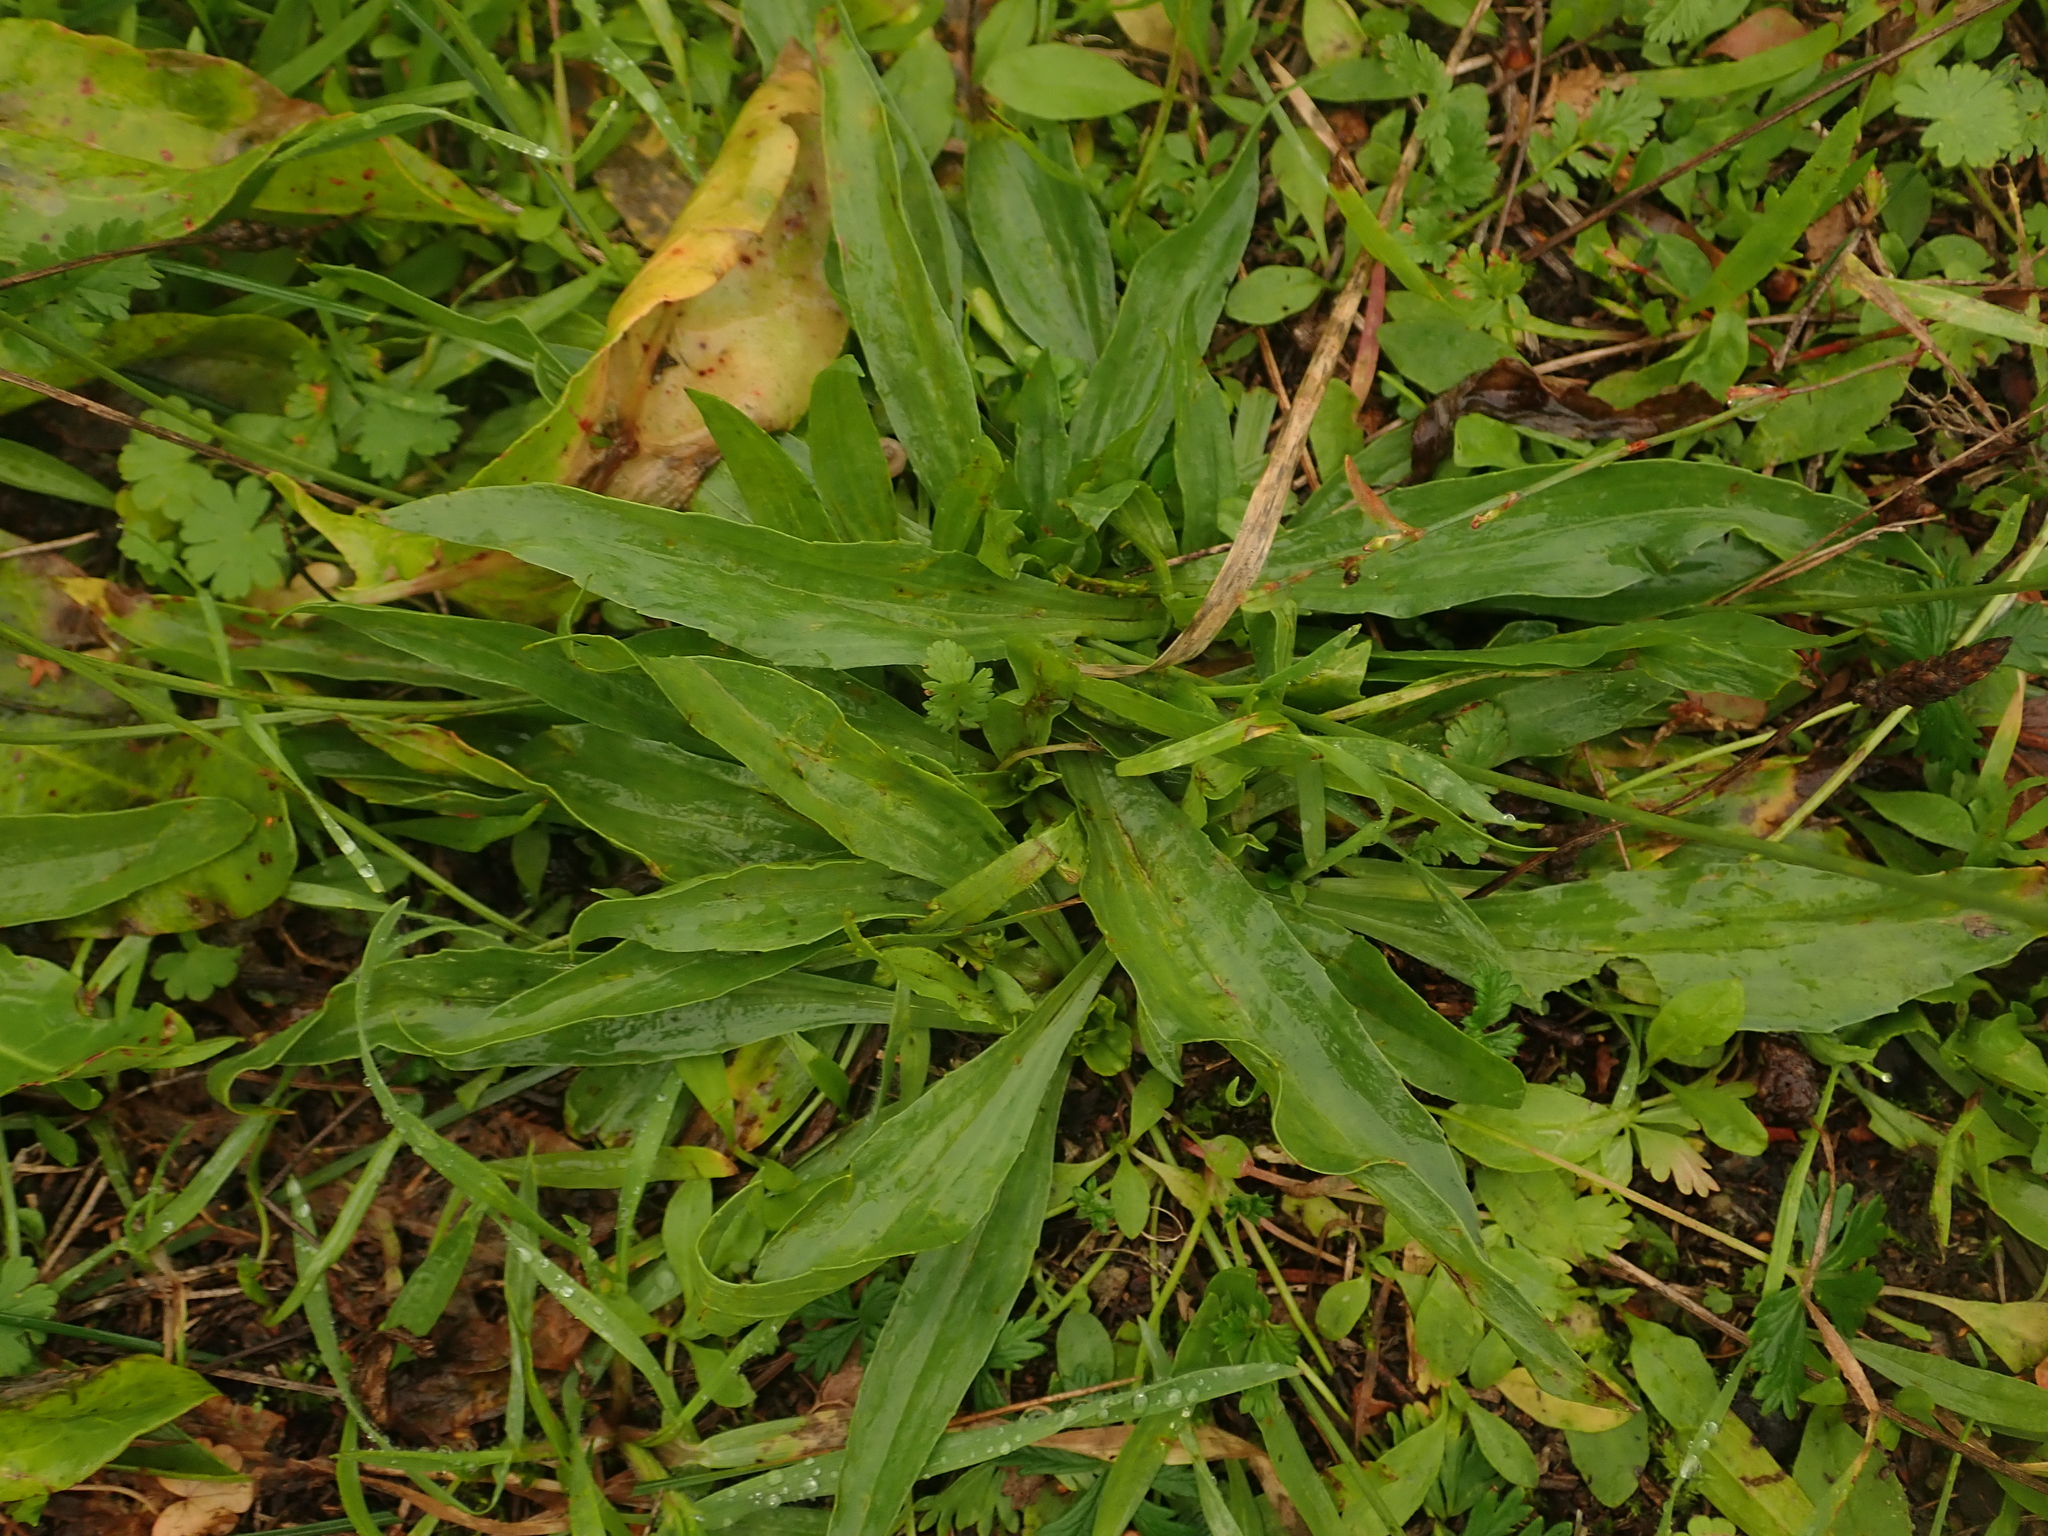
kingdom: Plantae
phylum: Tracheophyta
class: Magnoliopsida
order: Lamiales
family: Plantaginaceae
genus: Plantago
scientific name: Plantago lanceolata
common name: Ribwort plantain
